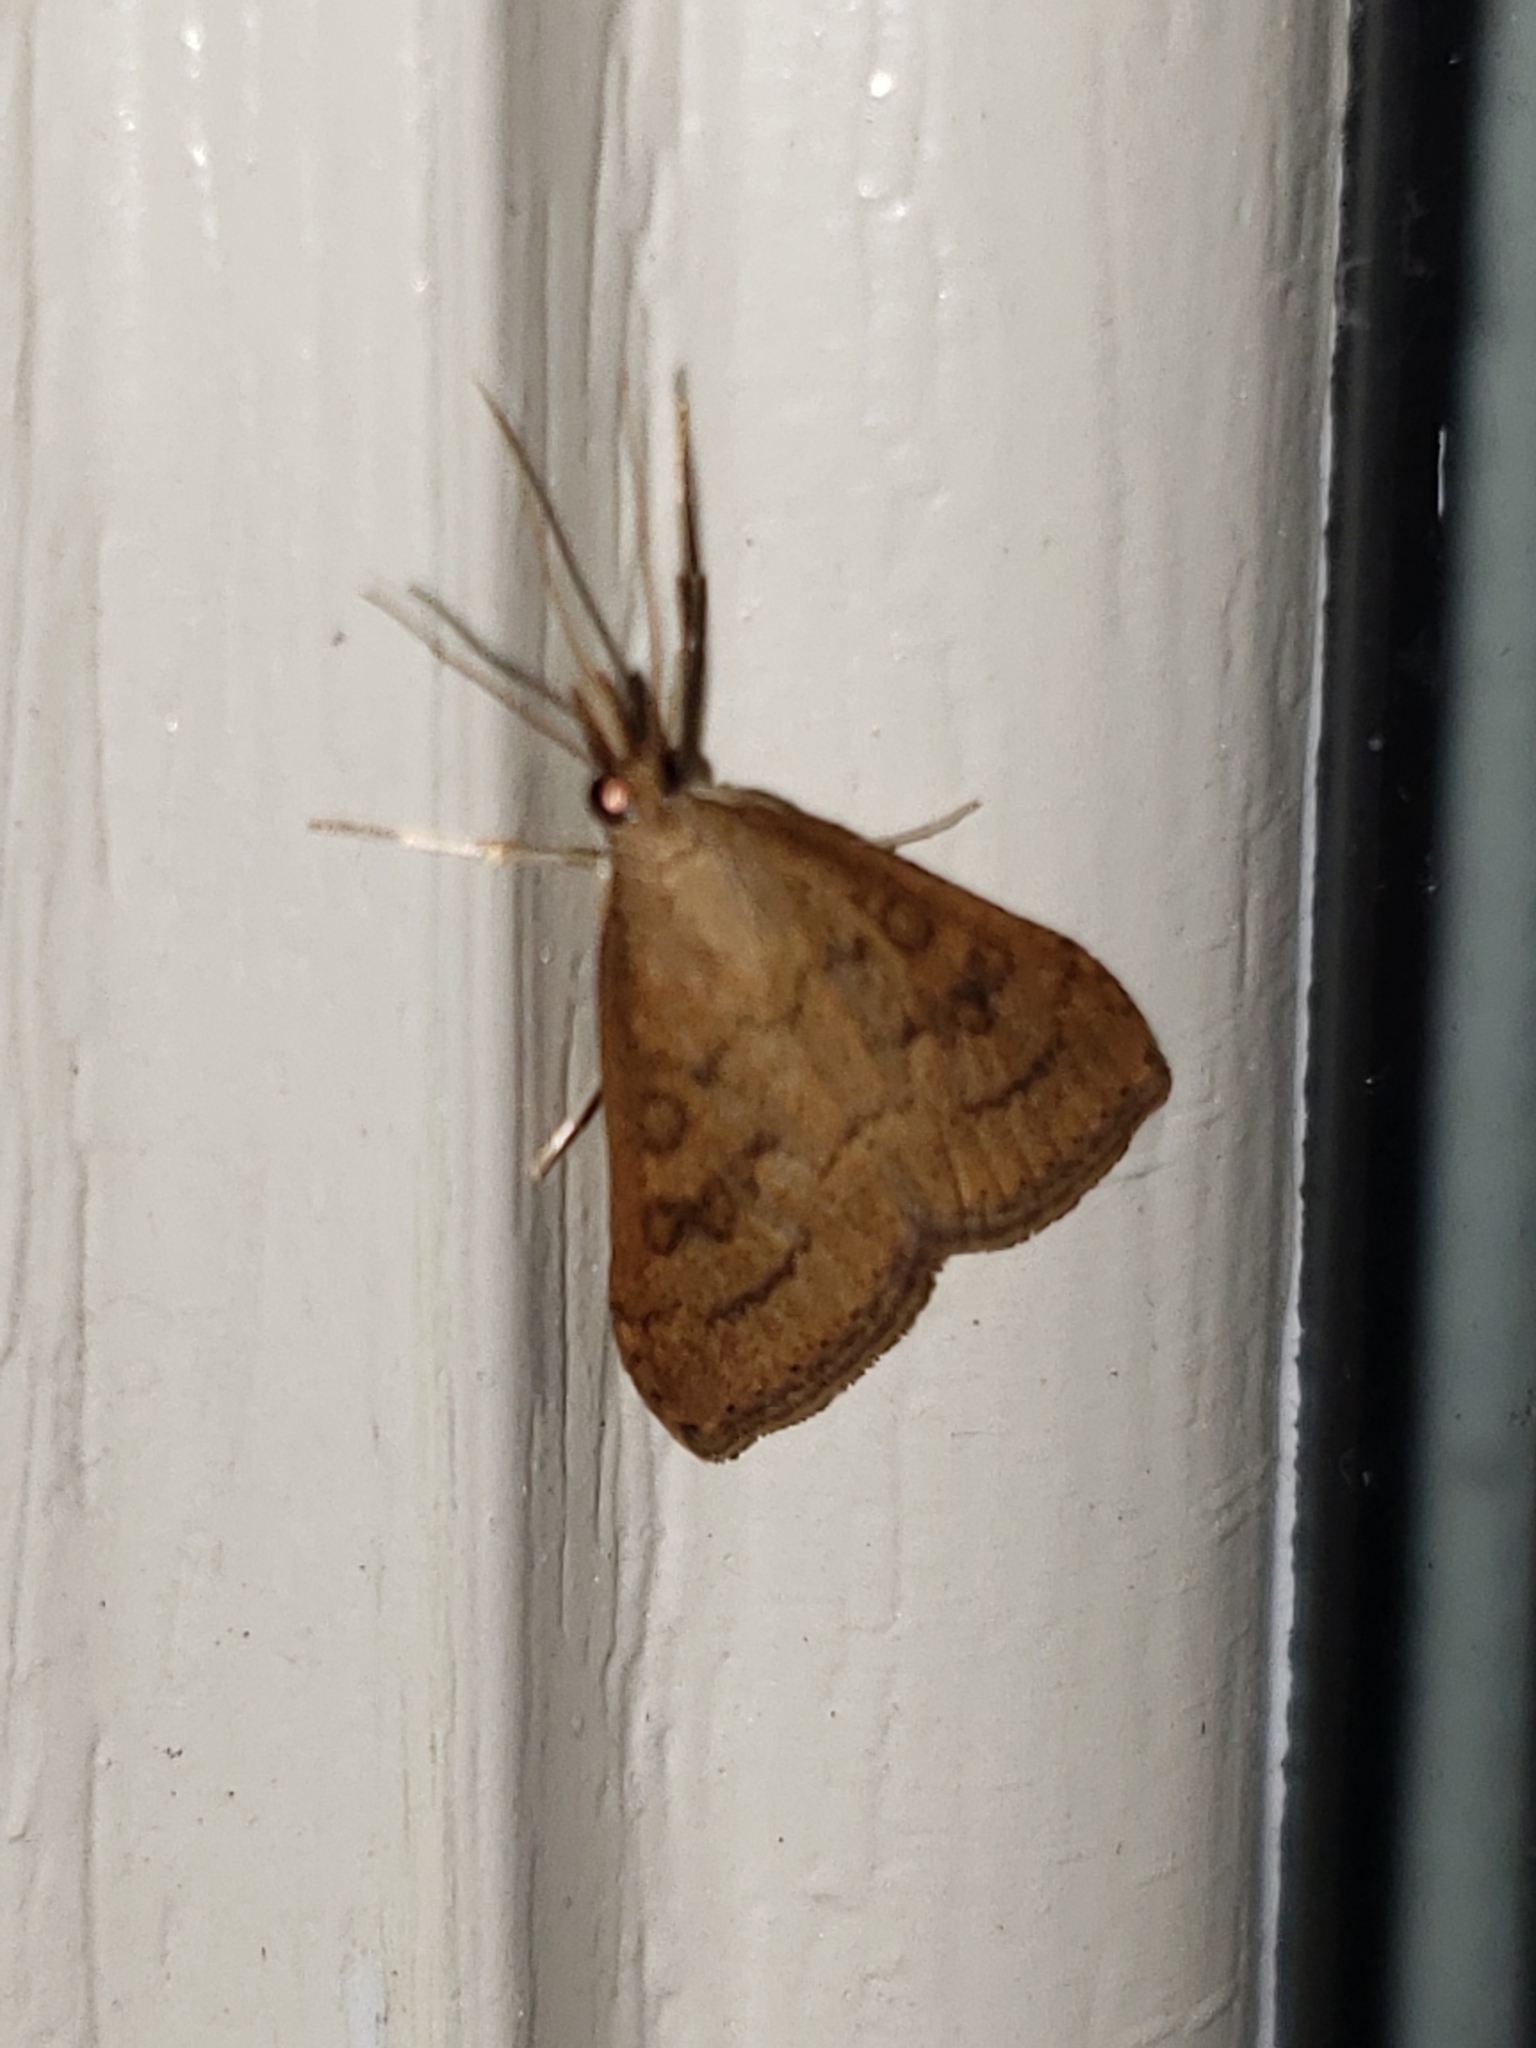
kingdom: Animalia
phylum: Arthropoda
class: Insecta
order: Lepidoptera
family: Crambidae
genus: Udea
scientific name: Udea rubigalis
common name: Celery leaftier moth
